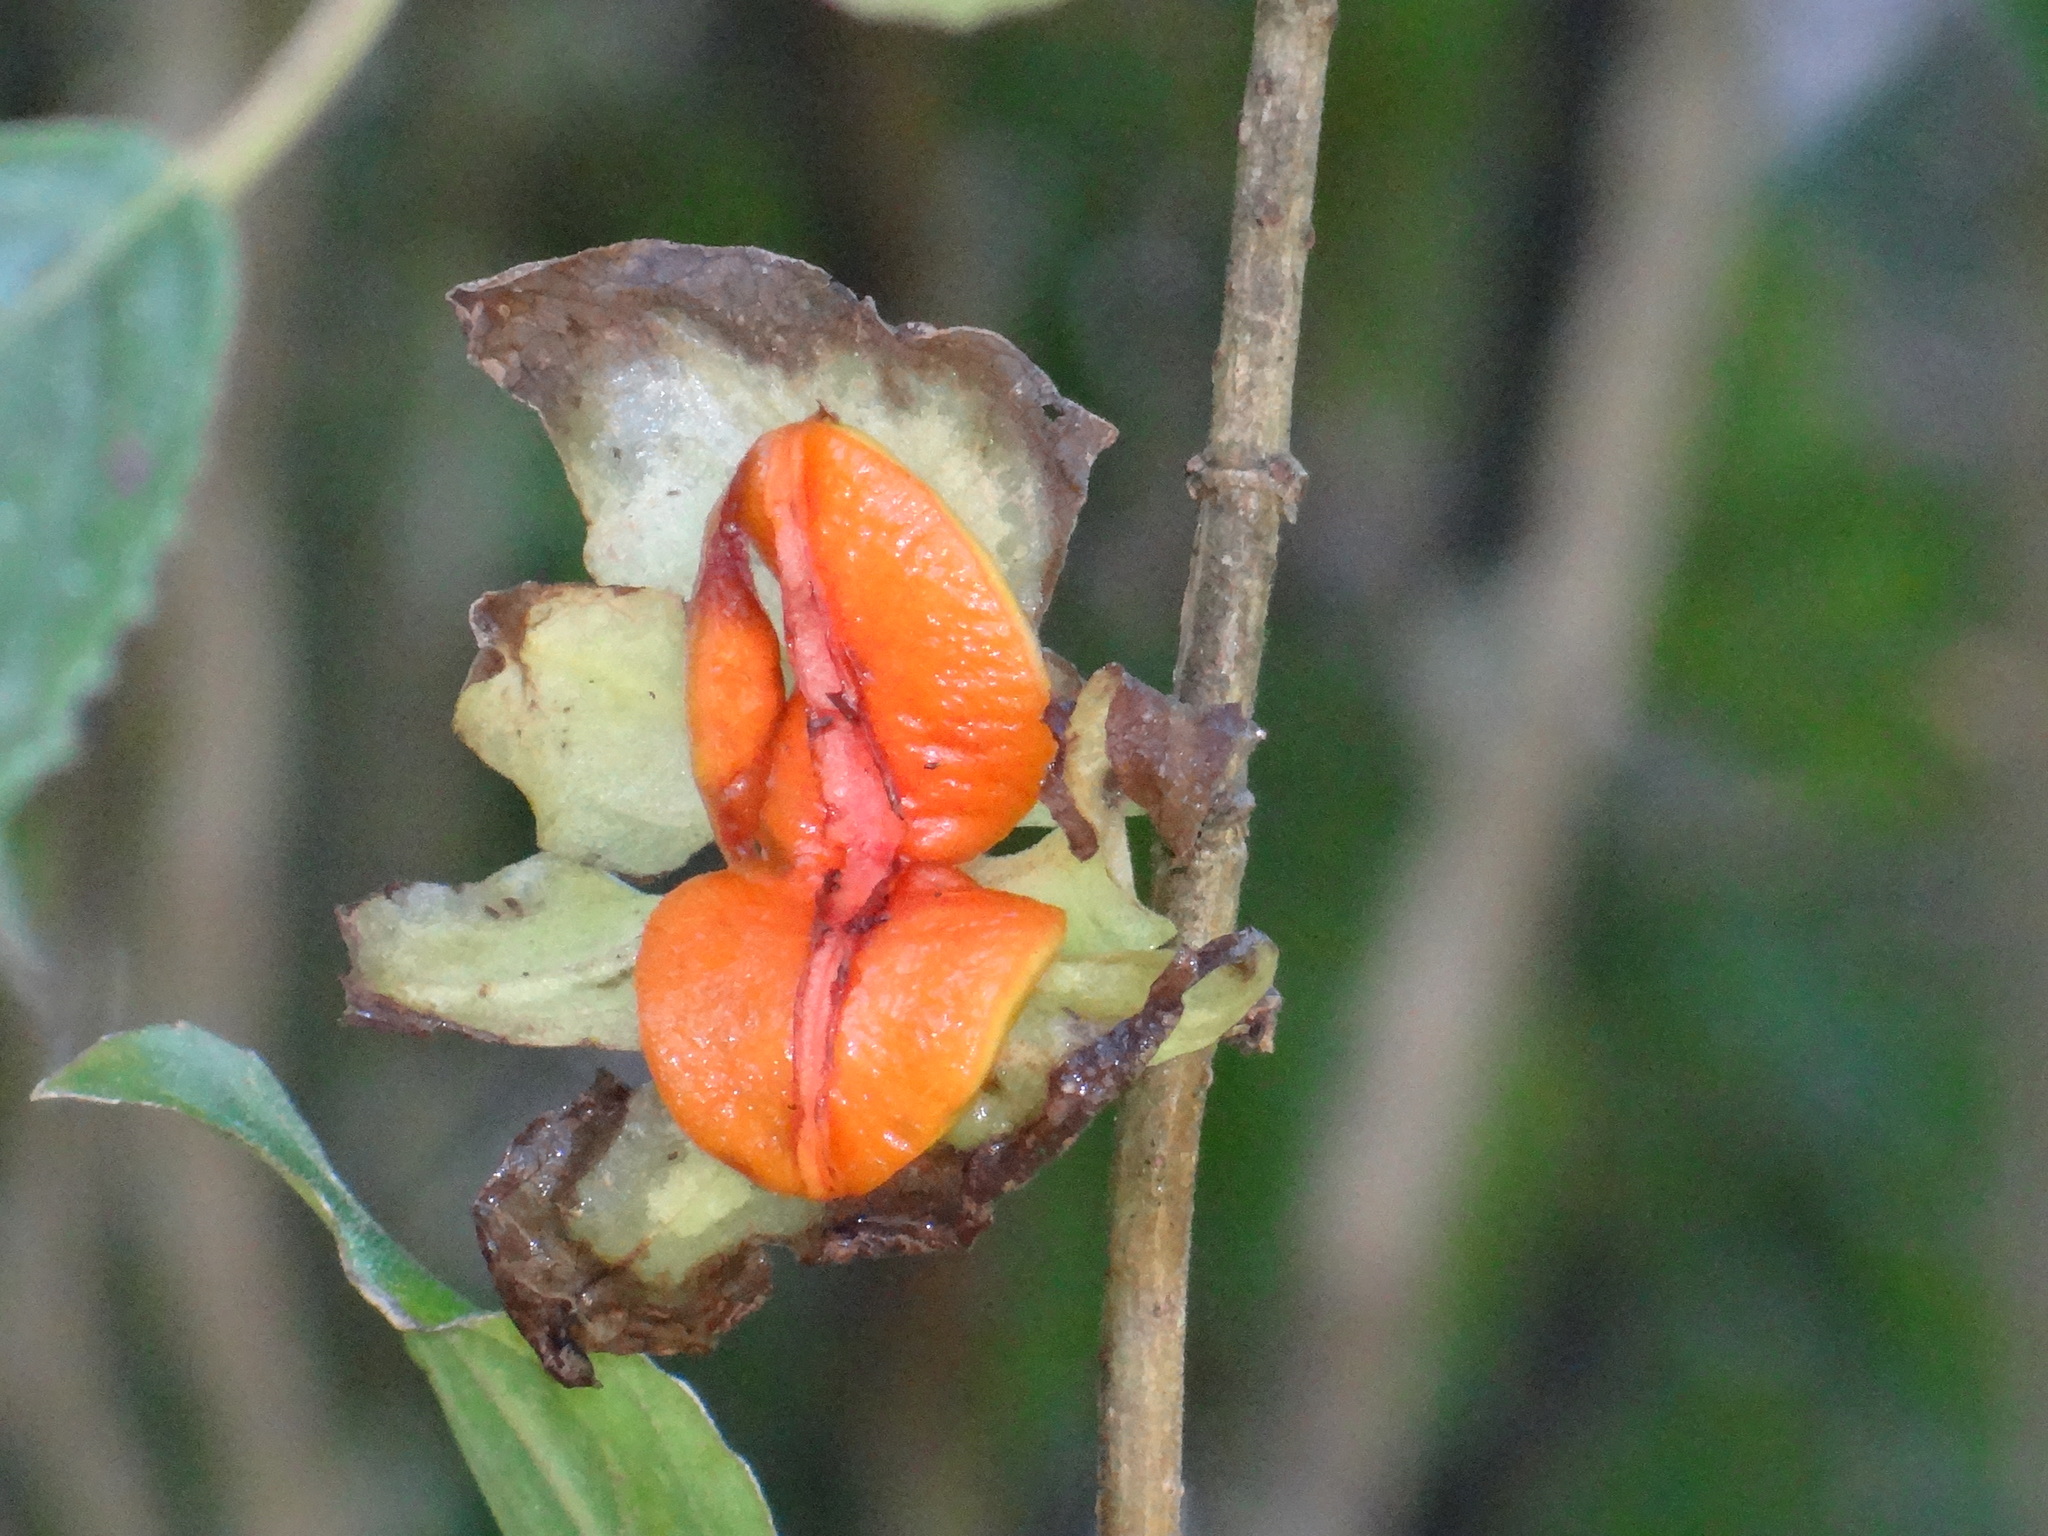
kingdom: Plantae
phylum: Tracheophyta
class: Magnoliopsida
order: Lamiales
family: Gesneriaceae
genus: Drymonia
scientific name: Drymonia serrulata
